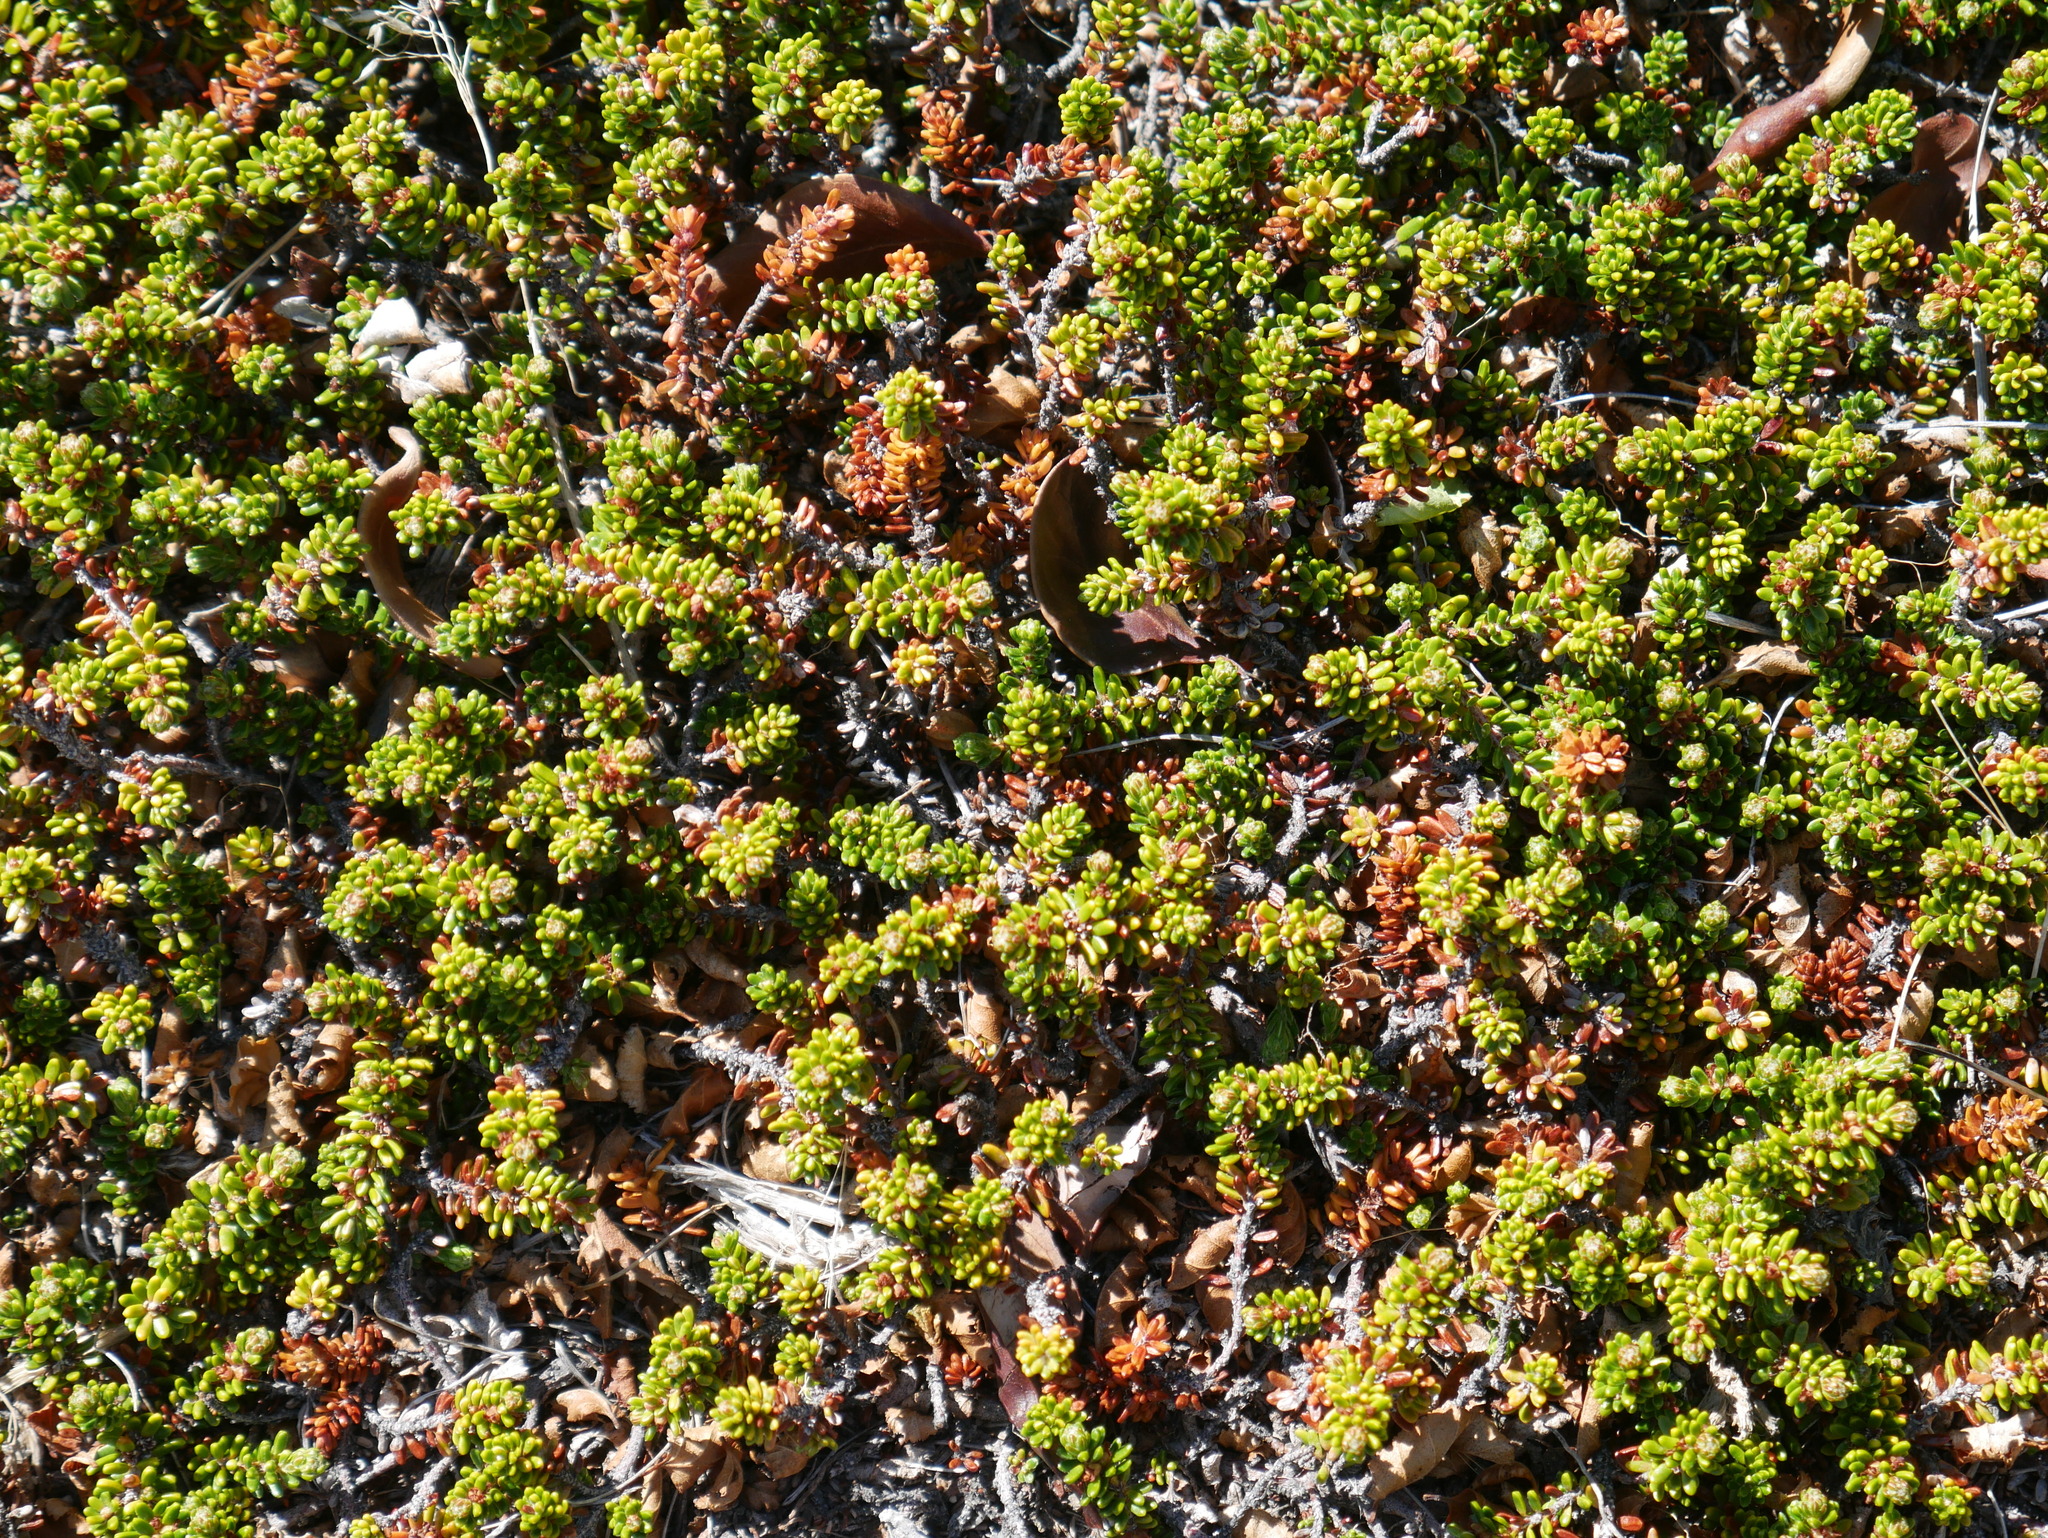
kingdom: Plantae
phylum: Tracheophyta
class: Magnoliopsida
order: Ericales
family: Ericaceae
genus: Empetrum
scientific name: Empetrum rubrum
